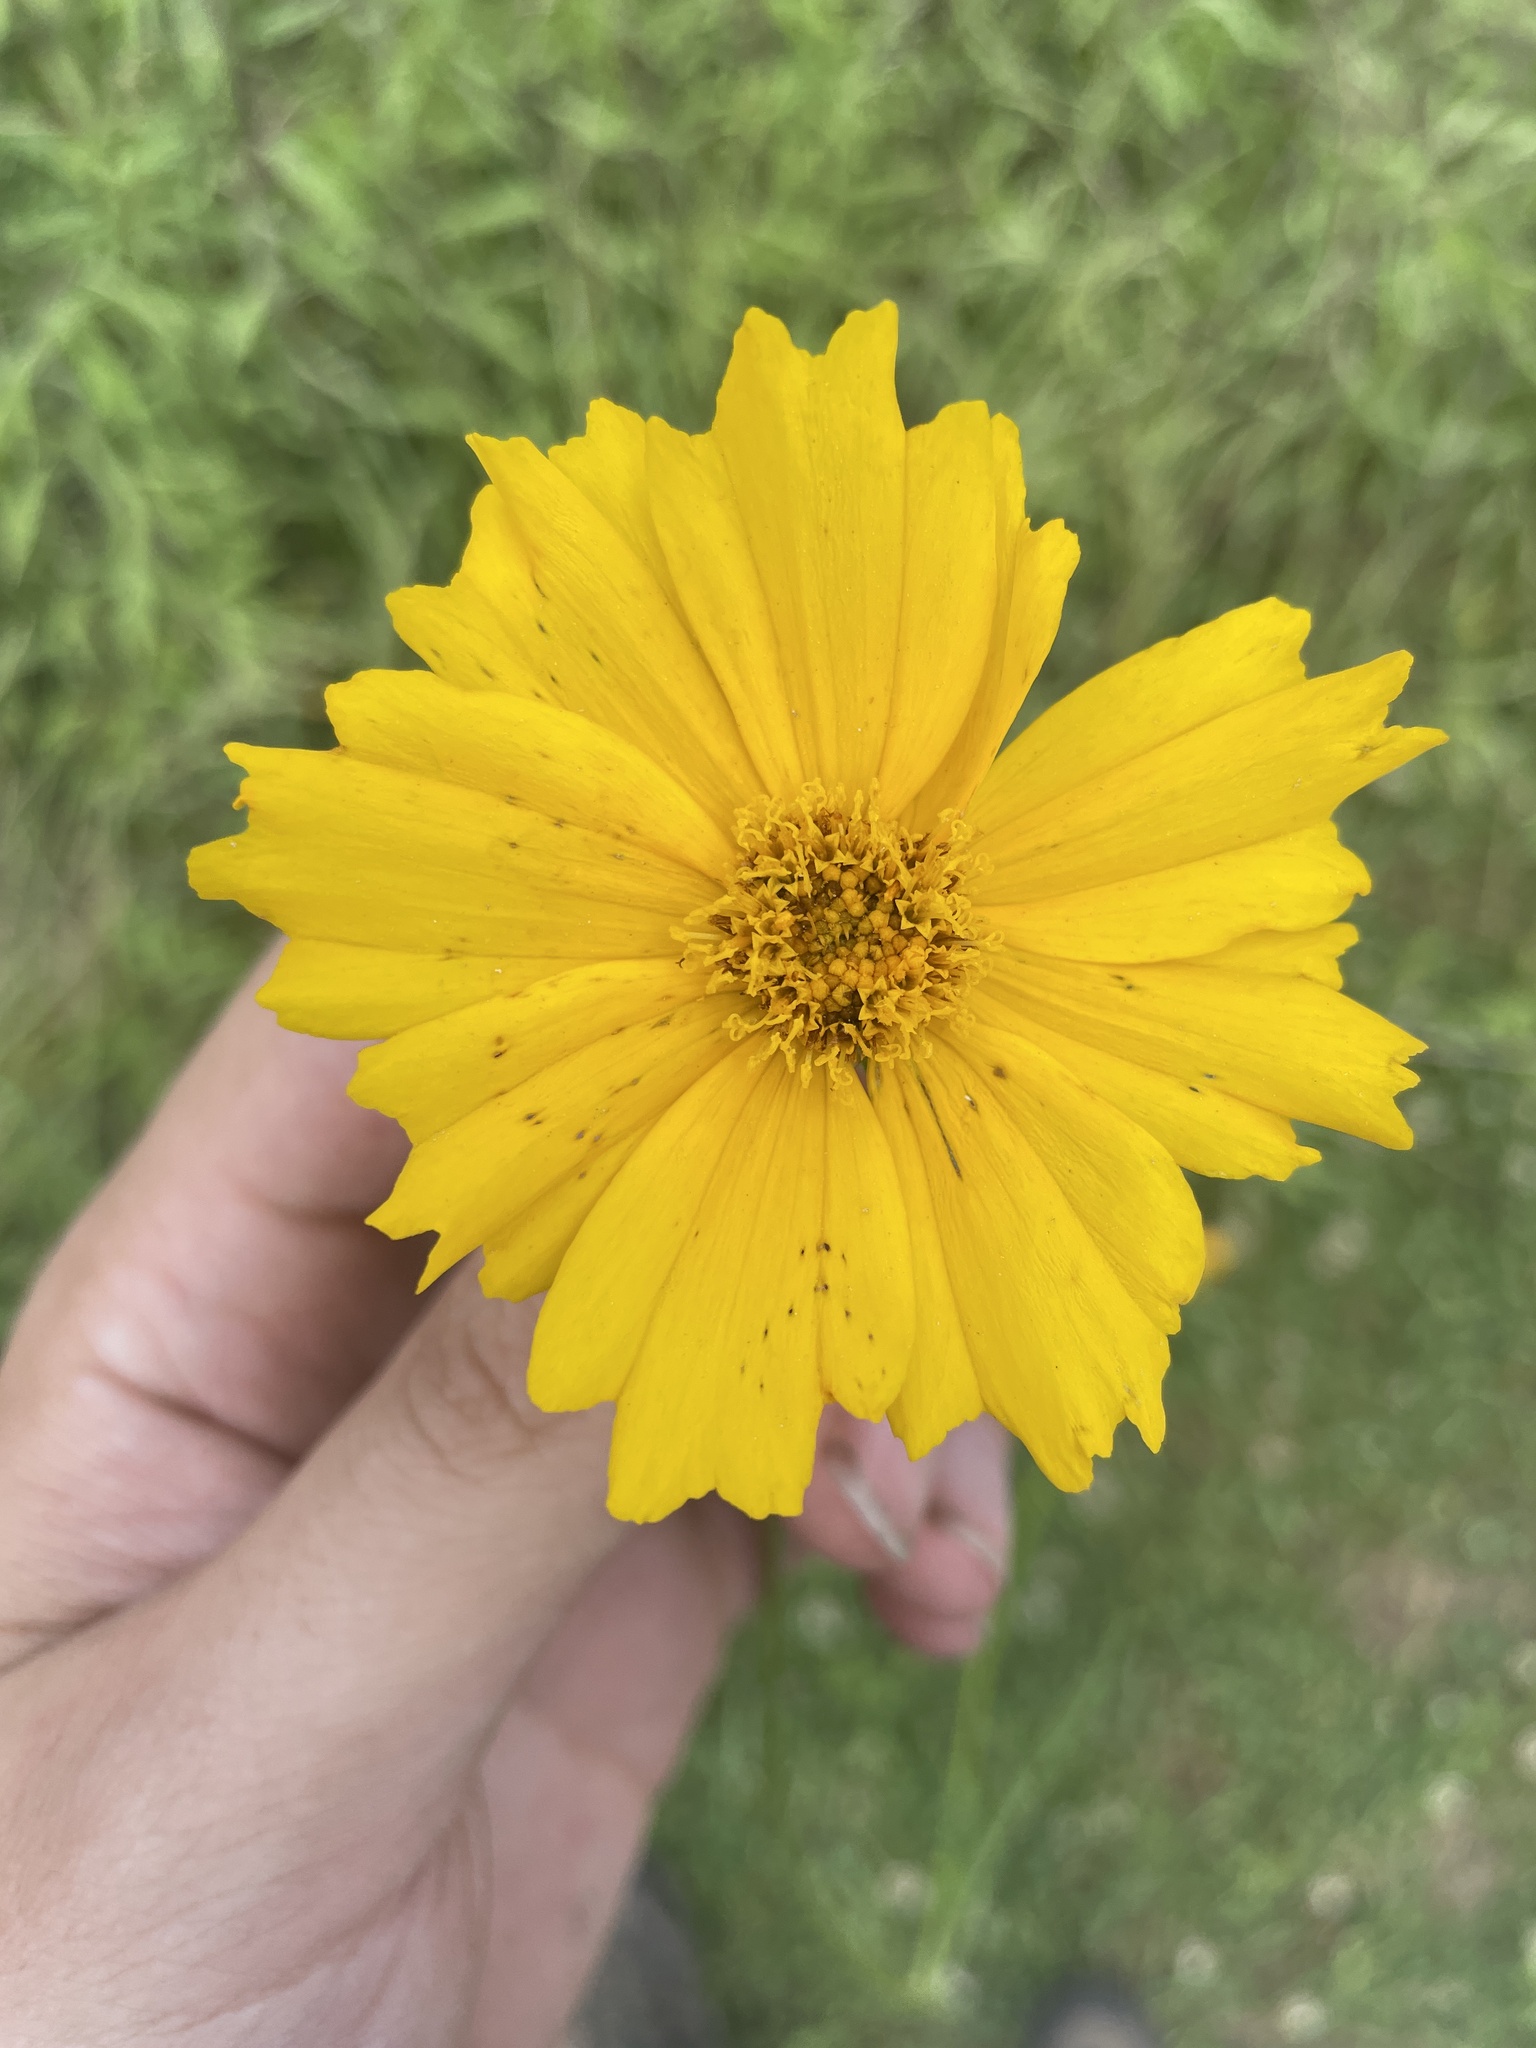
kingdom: Plantae
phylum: Tracheophyta
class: Magnoliopsida
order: Asterales
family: Asteraceae
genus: Coreopsis
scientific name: Coreopsis grandiflora
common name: Large-flowered tickseed
